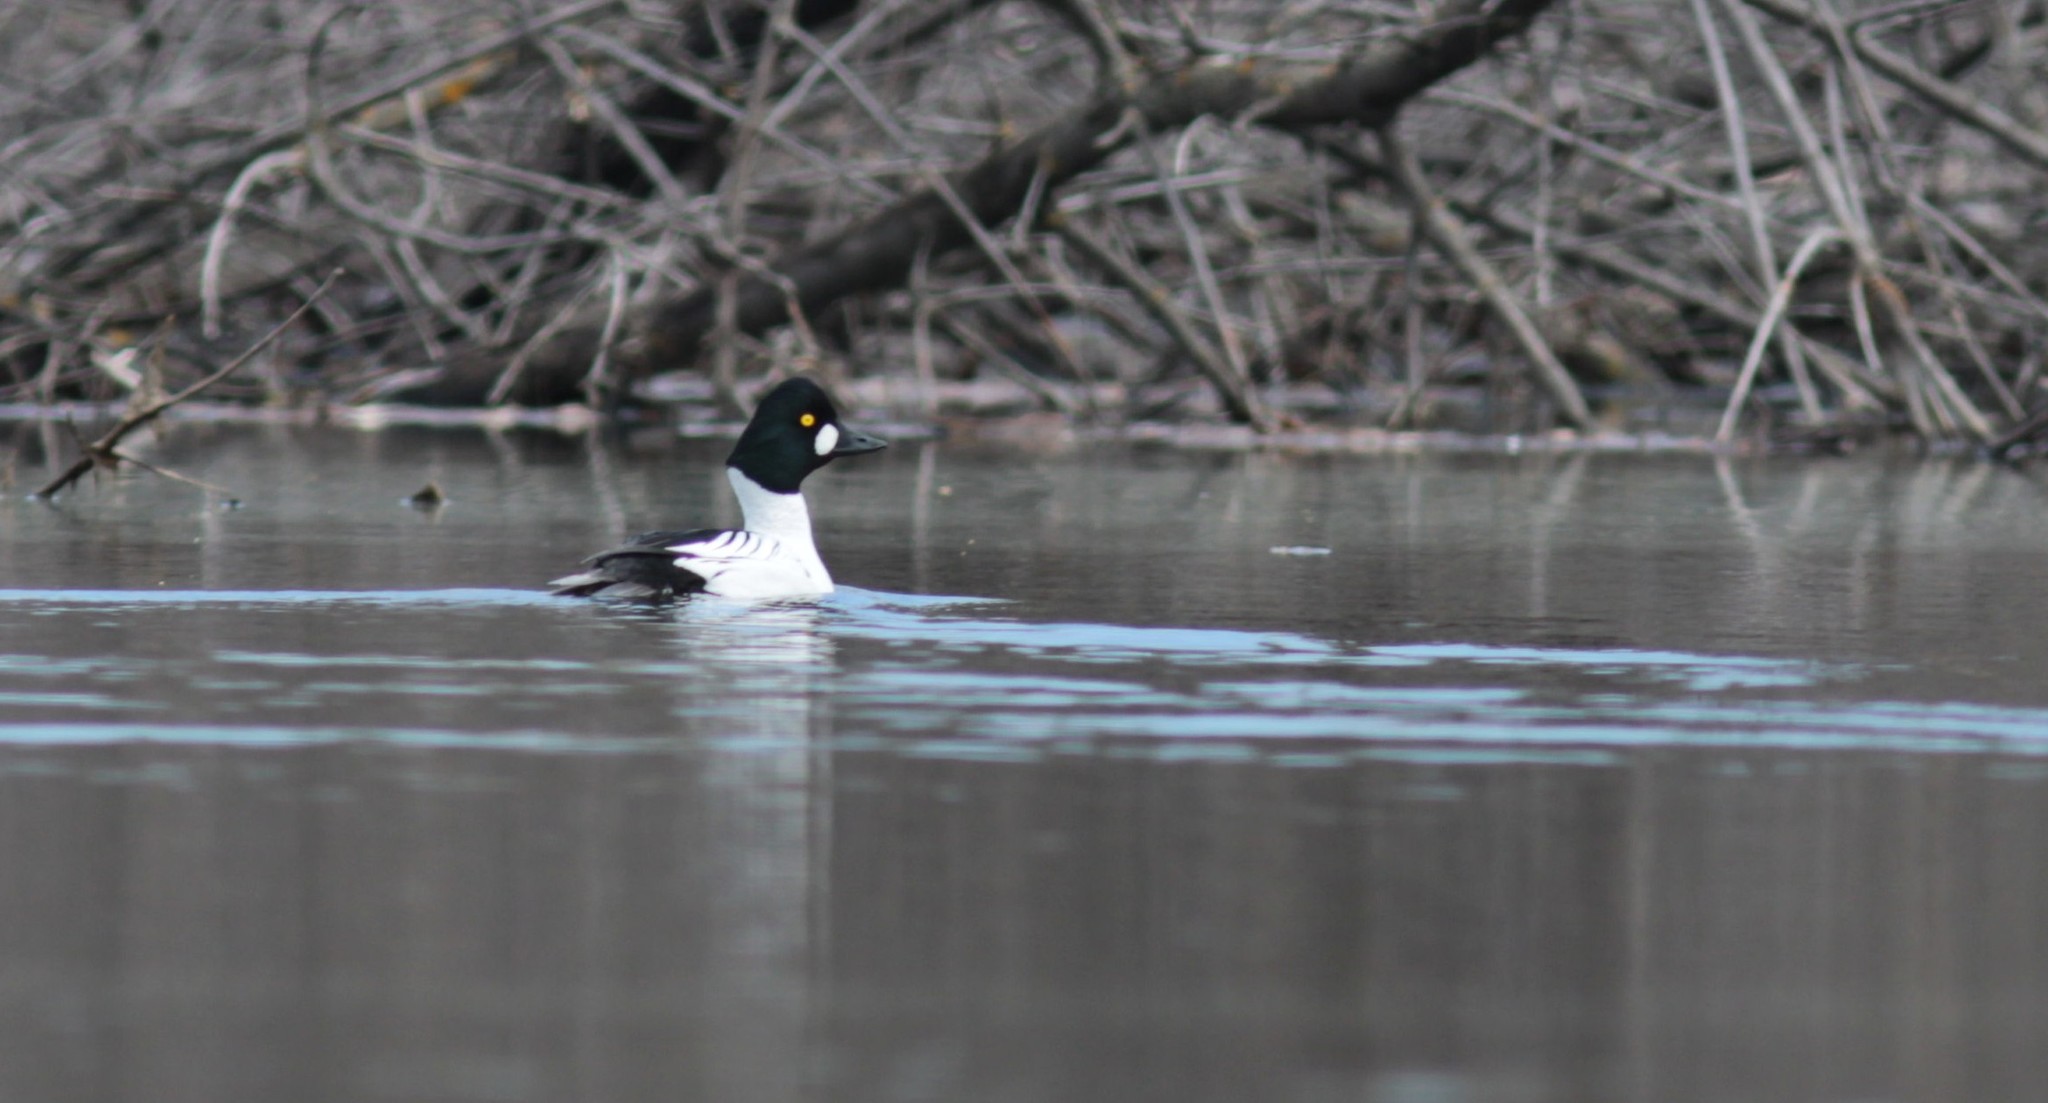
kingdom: Animalia
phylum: Chordata
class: Aves
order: Anseriformes
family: Anatidae
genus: Bucephala
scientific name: Bucephala clangula
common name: Common goldeneye
